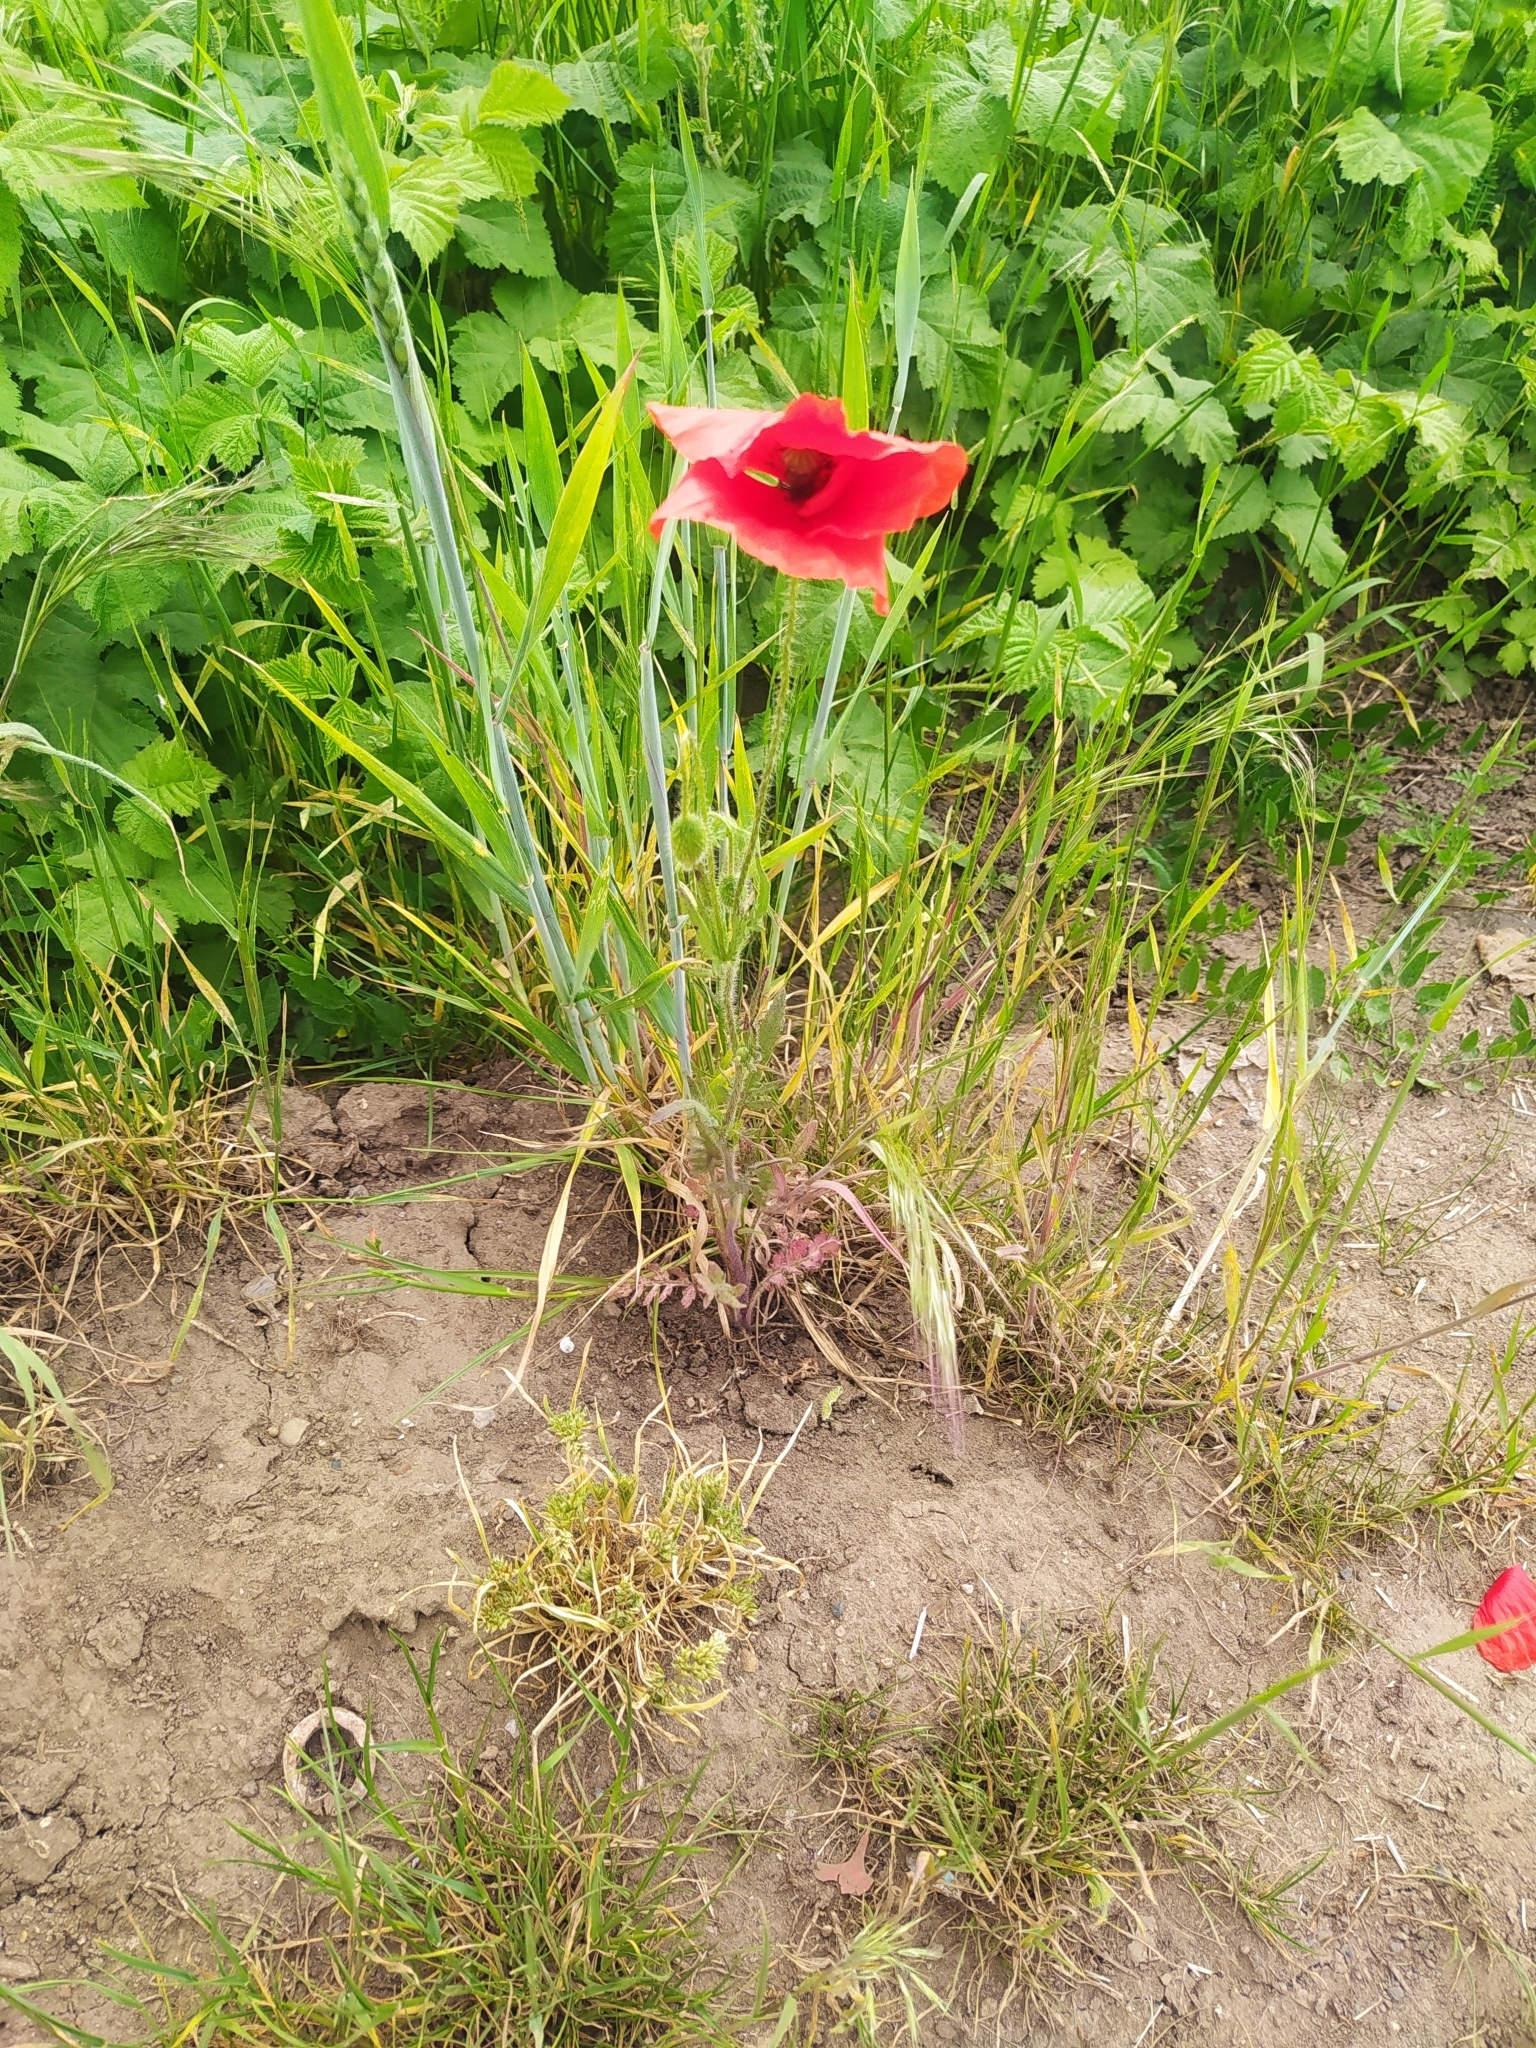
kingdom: Plantae
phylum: Tracheophyta
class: Magnoliopsida
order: Ranunculales
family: Papaveraceae
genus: Papaver
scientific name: Papaver rhoeas
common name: Corn poppy
